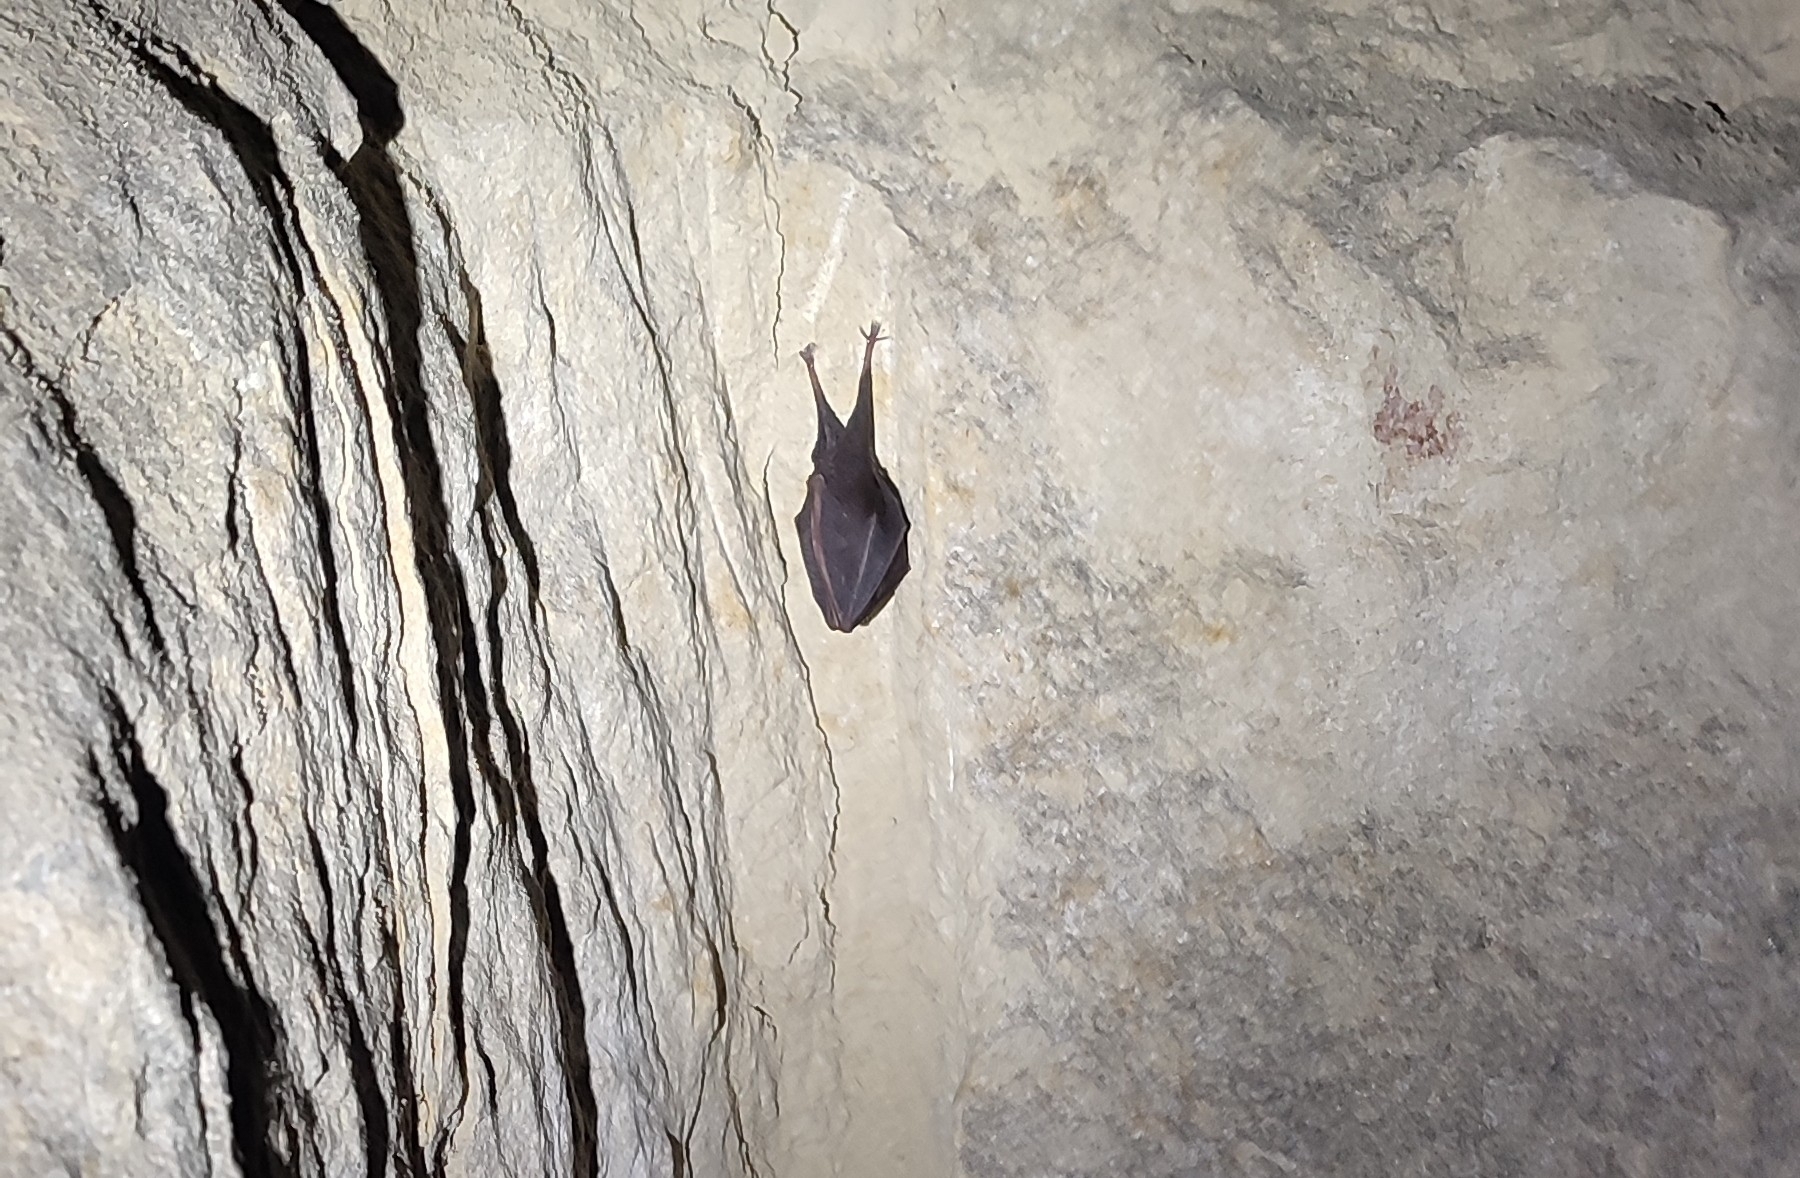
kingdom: Animalia
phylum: Chordata
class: Mammalia
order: Chiroptera
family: Rhinolophidae
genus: Rhinolophus
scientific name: Rhinolophus hipposideros
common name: Lesser horseshoe bat
